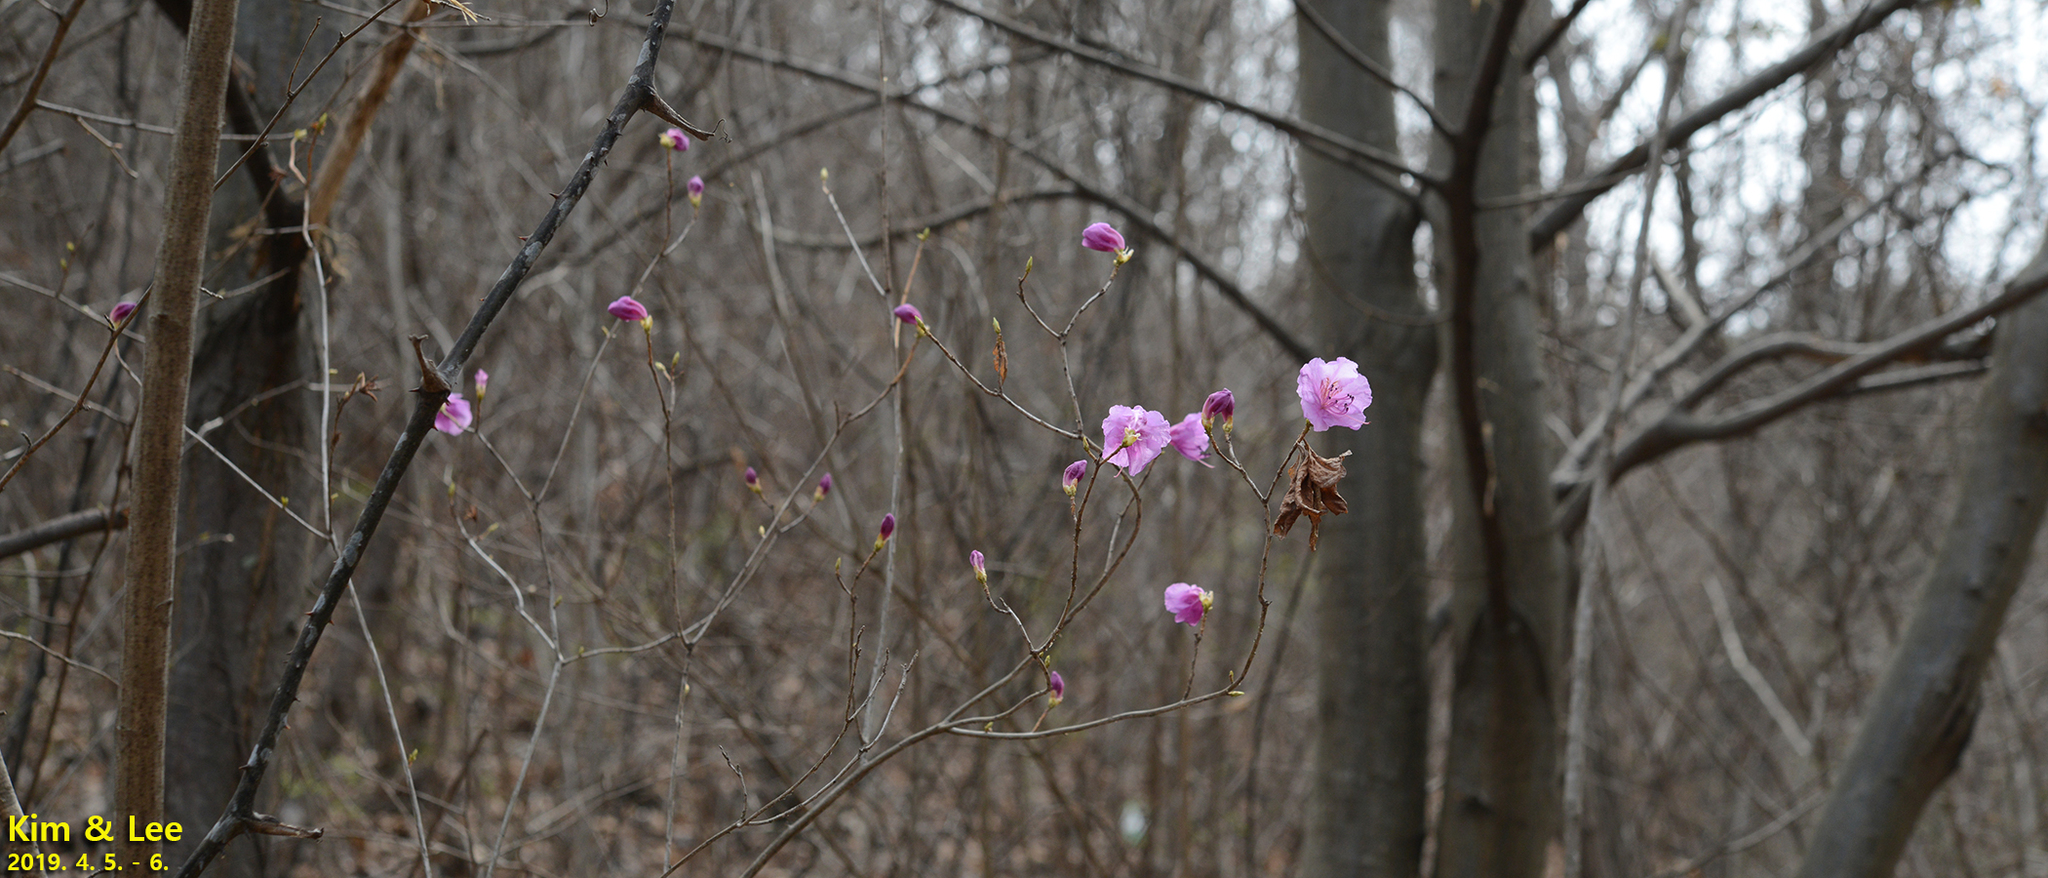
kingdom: Plantae
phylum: Tracheophyta
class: Magnoliopsida
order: Ericales
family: Ericaceae
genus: Rhododendron
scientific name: Rhododendron mucronulatum
